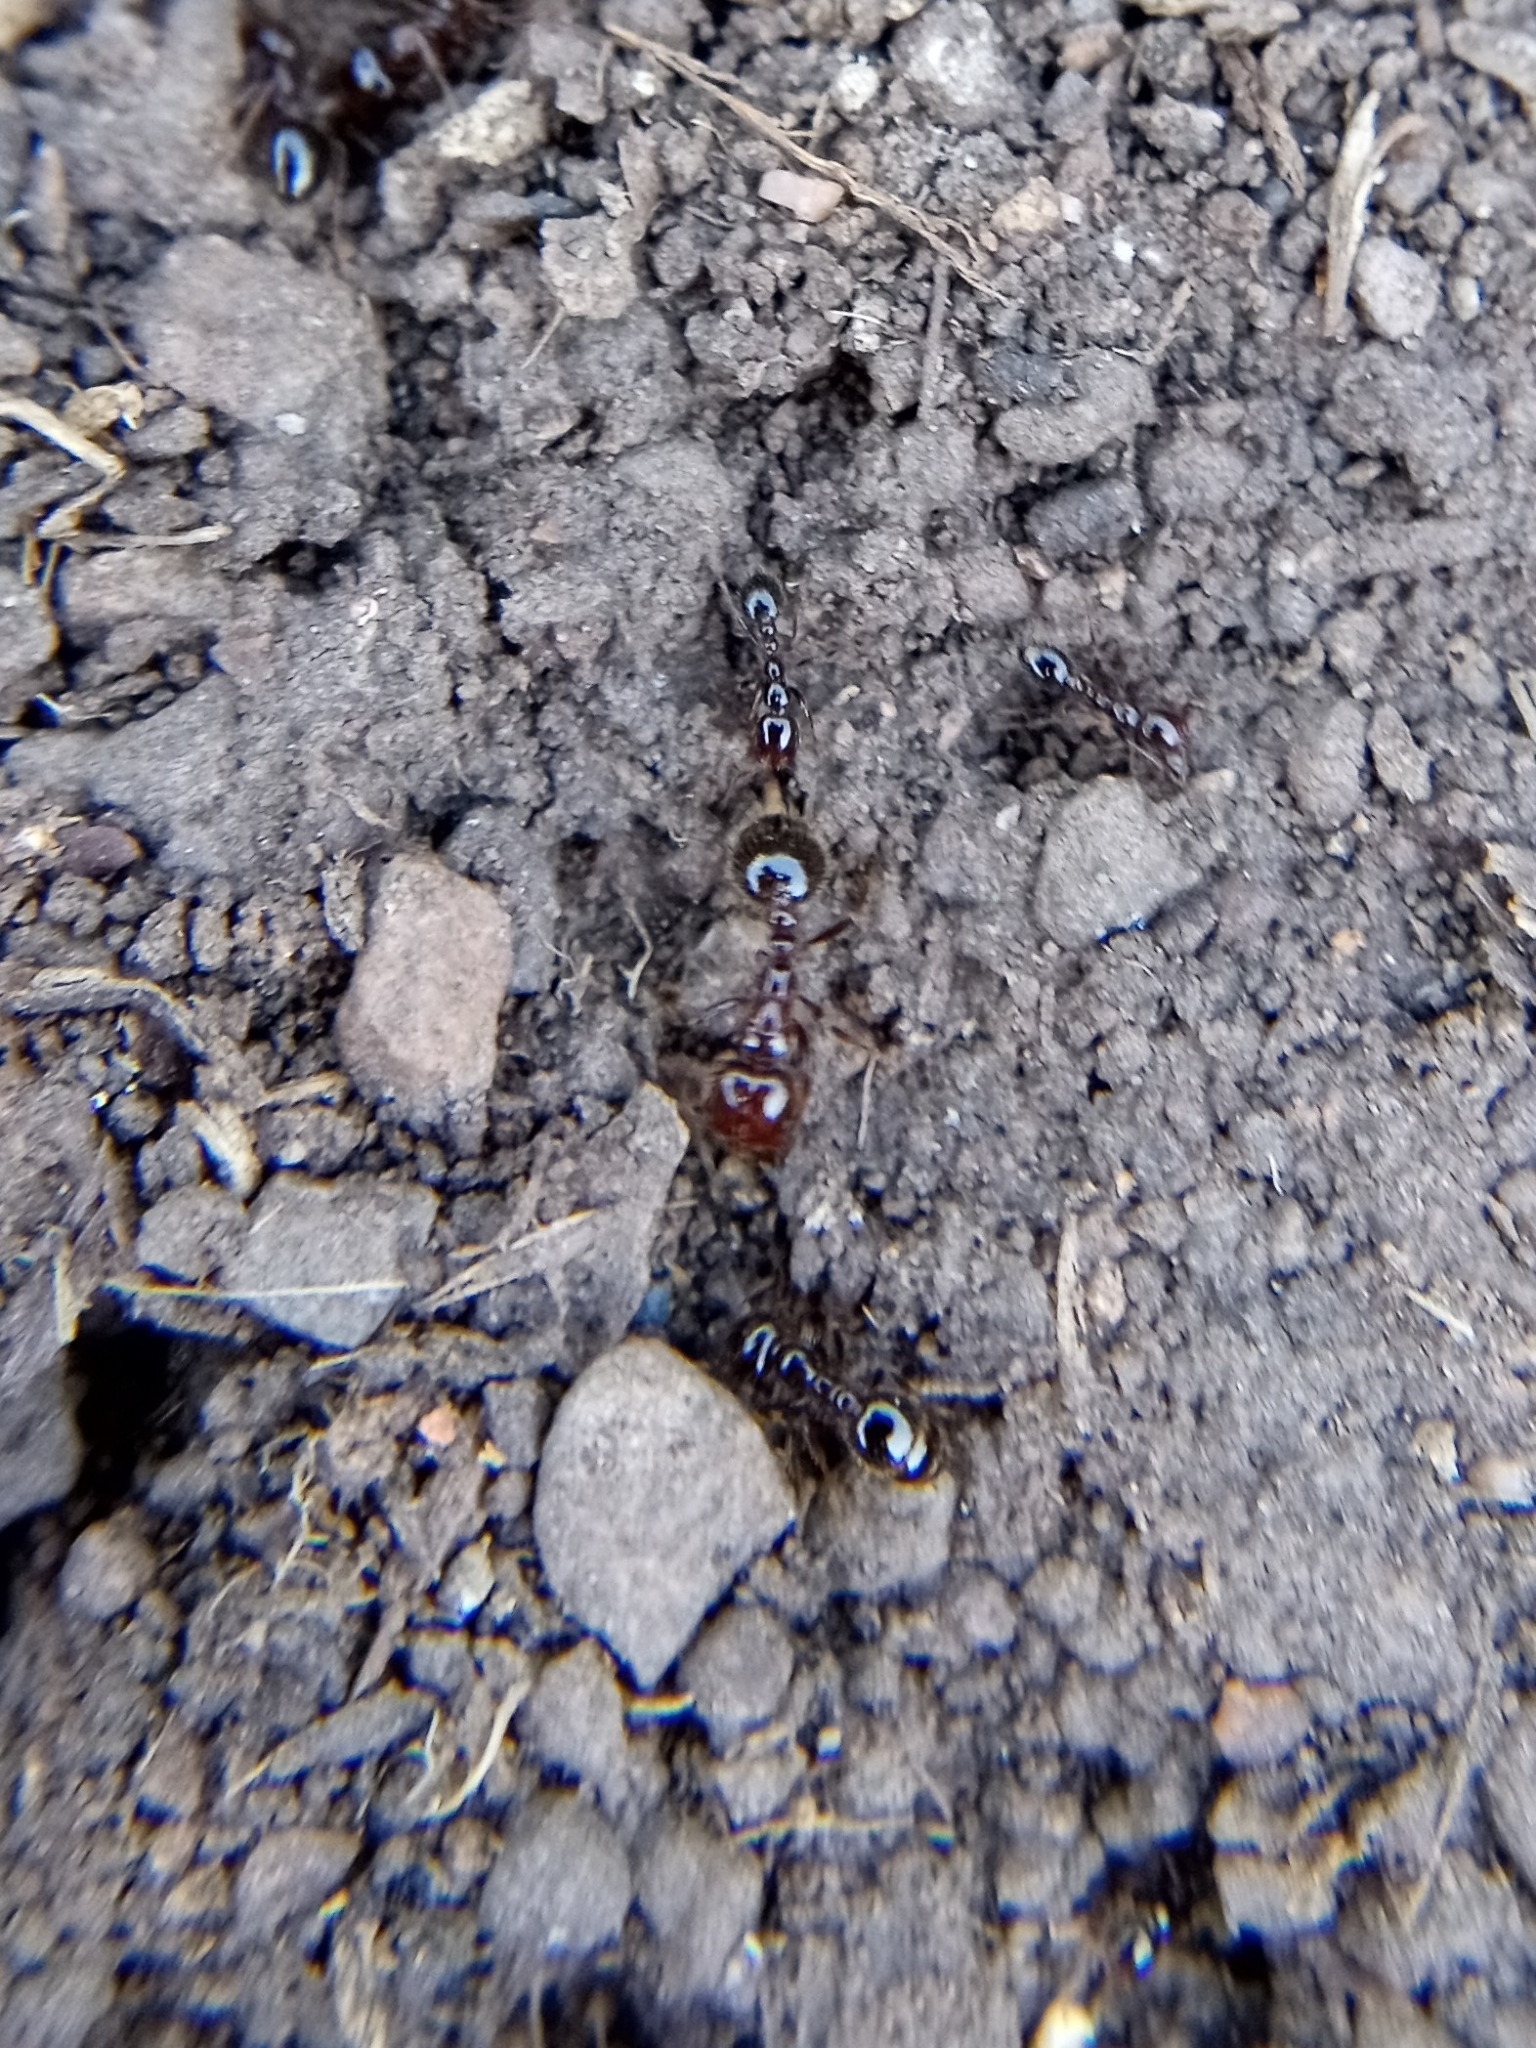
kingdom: Animalia
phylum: Arthropoda
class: Insecta
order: Hymenoptera
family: Formicidae
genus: Solenopsis
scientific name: Solenopsis xyloni
